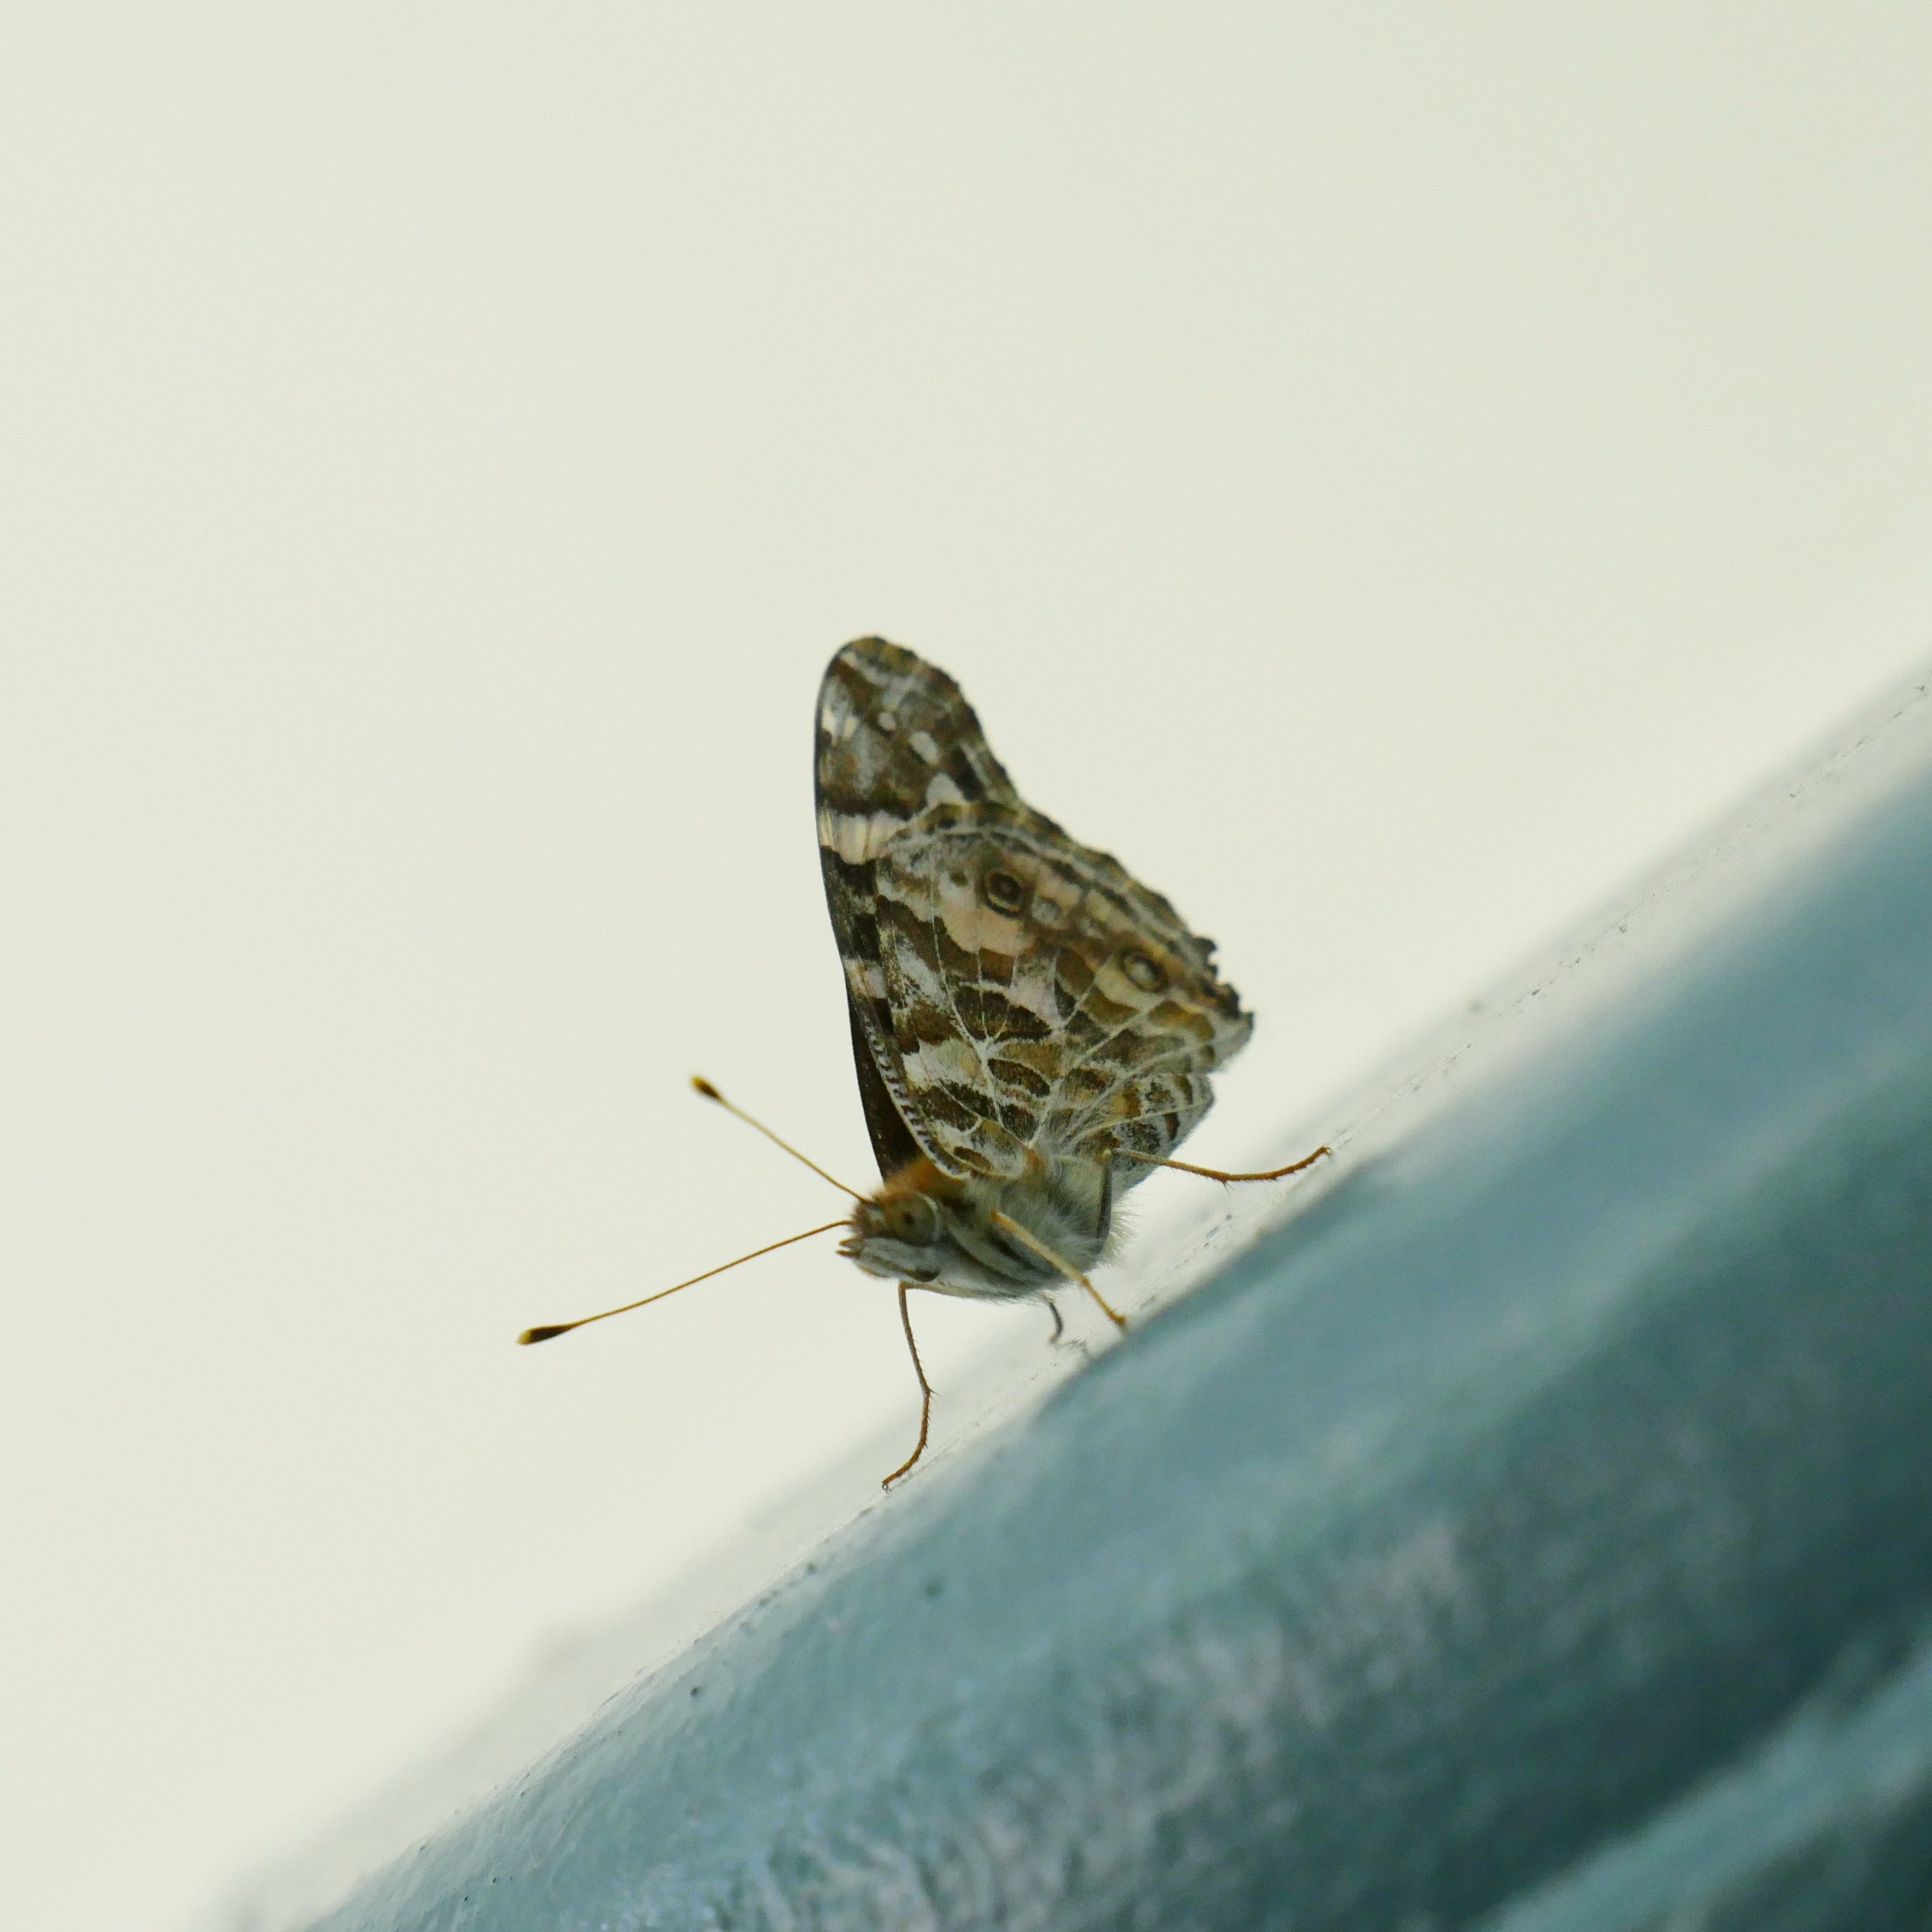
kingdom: Animalia
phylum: Arthropoda
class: Insecta
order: Lepidoptera
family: Nymphalidae
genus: Vanessa
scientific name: Vanessa kershawi
